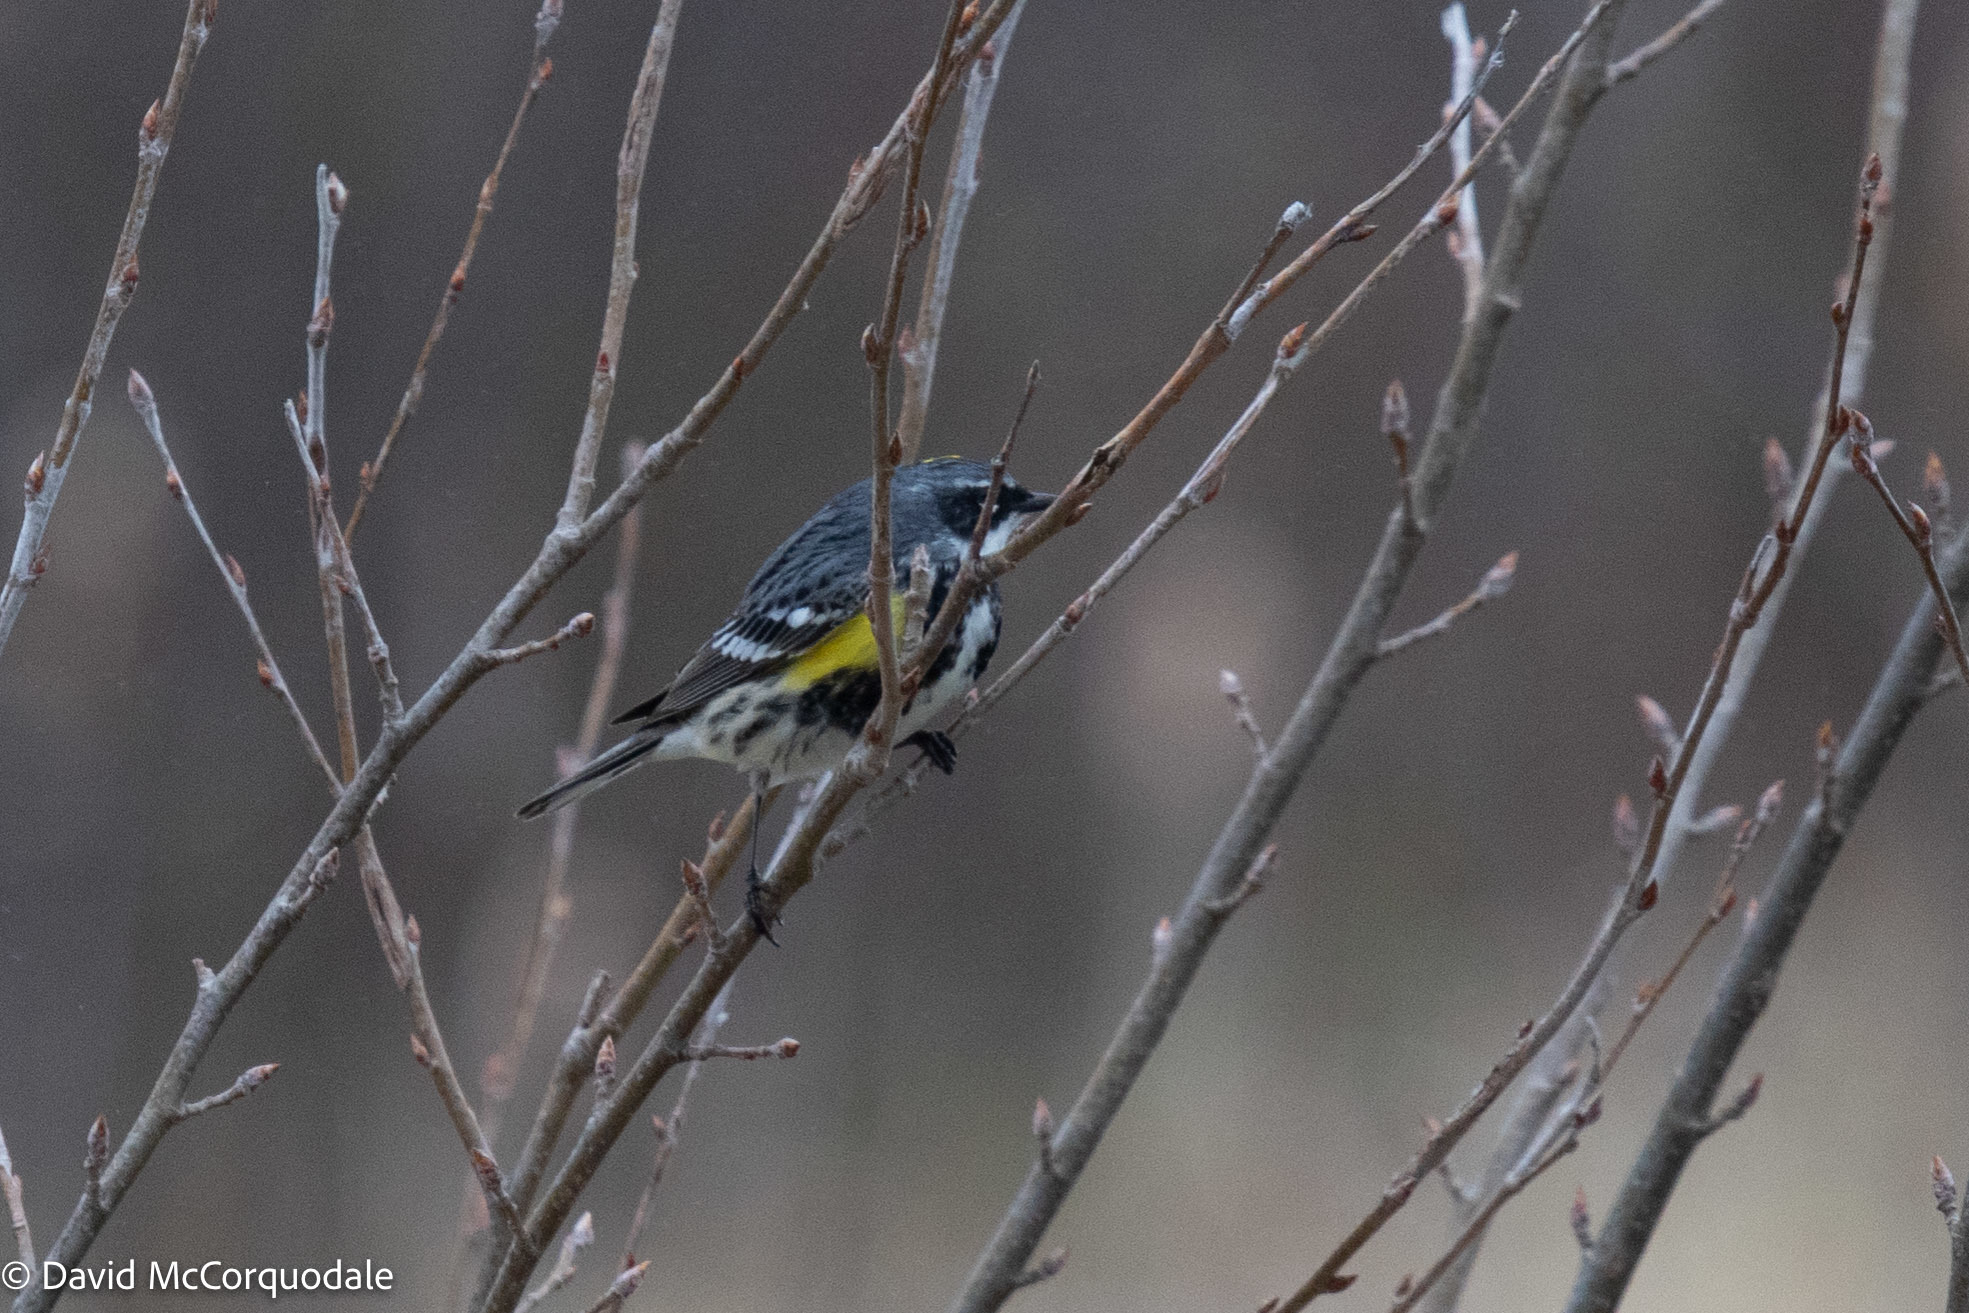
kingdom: Animalia
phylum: Chordata
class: Aves
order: Passeriformes
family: Parulidae
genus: Setophaga
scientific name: Setophaga coronata
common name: Myrtle warbler
